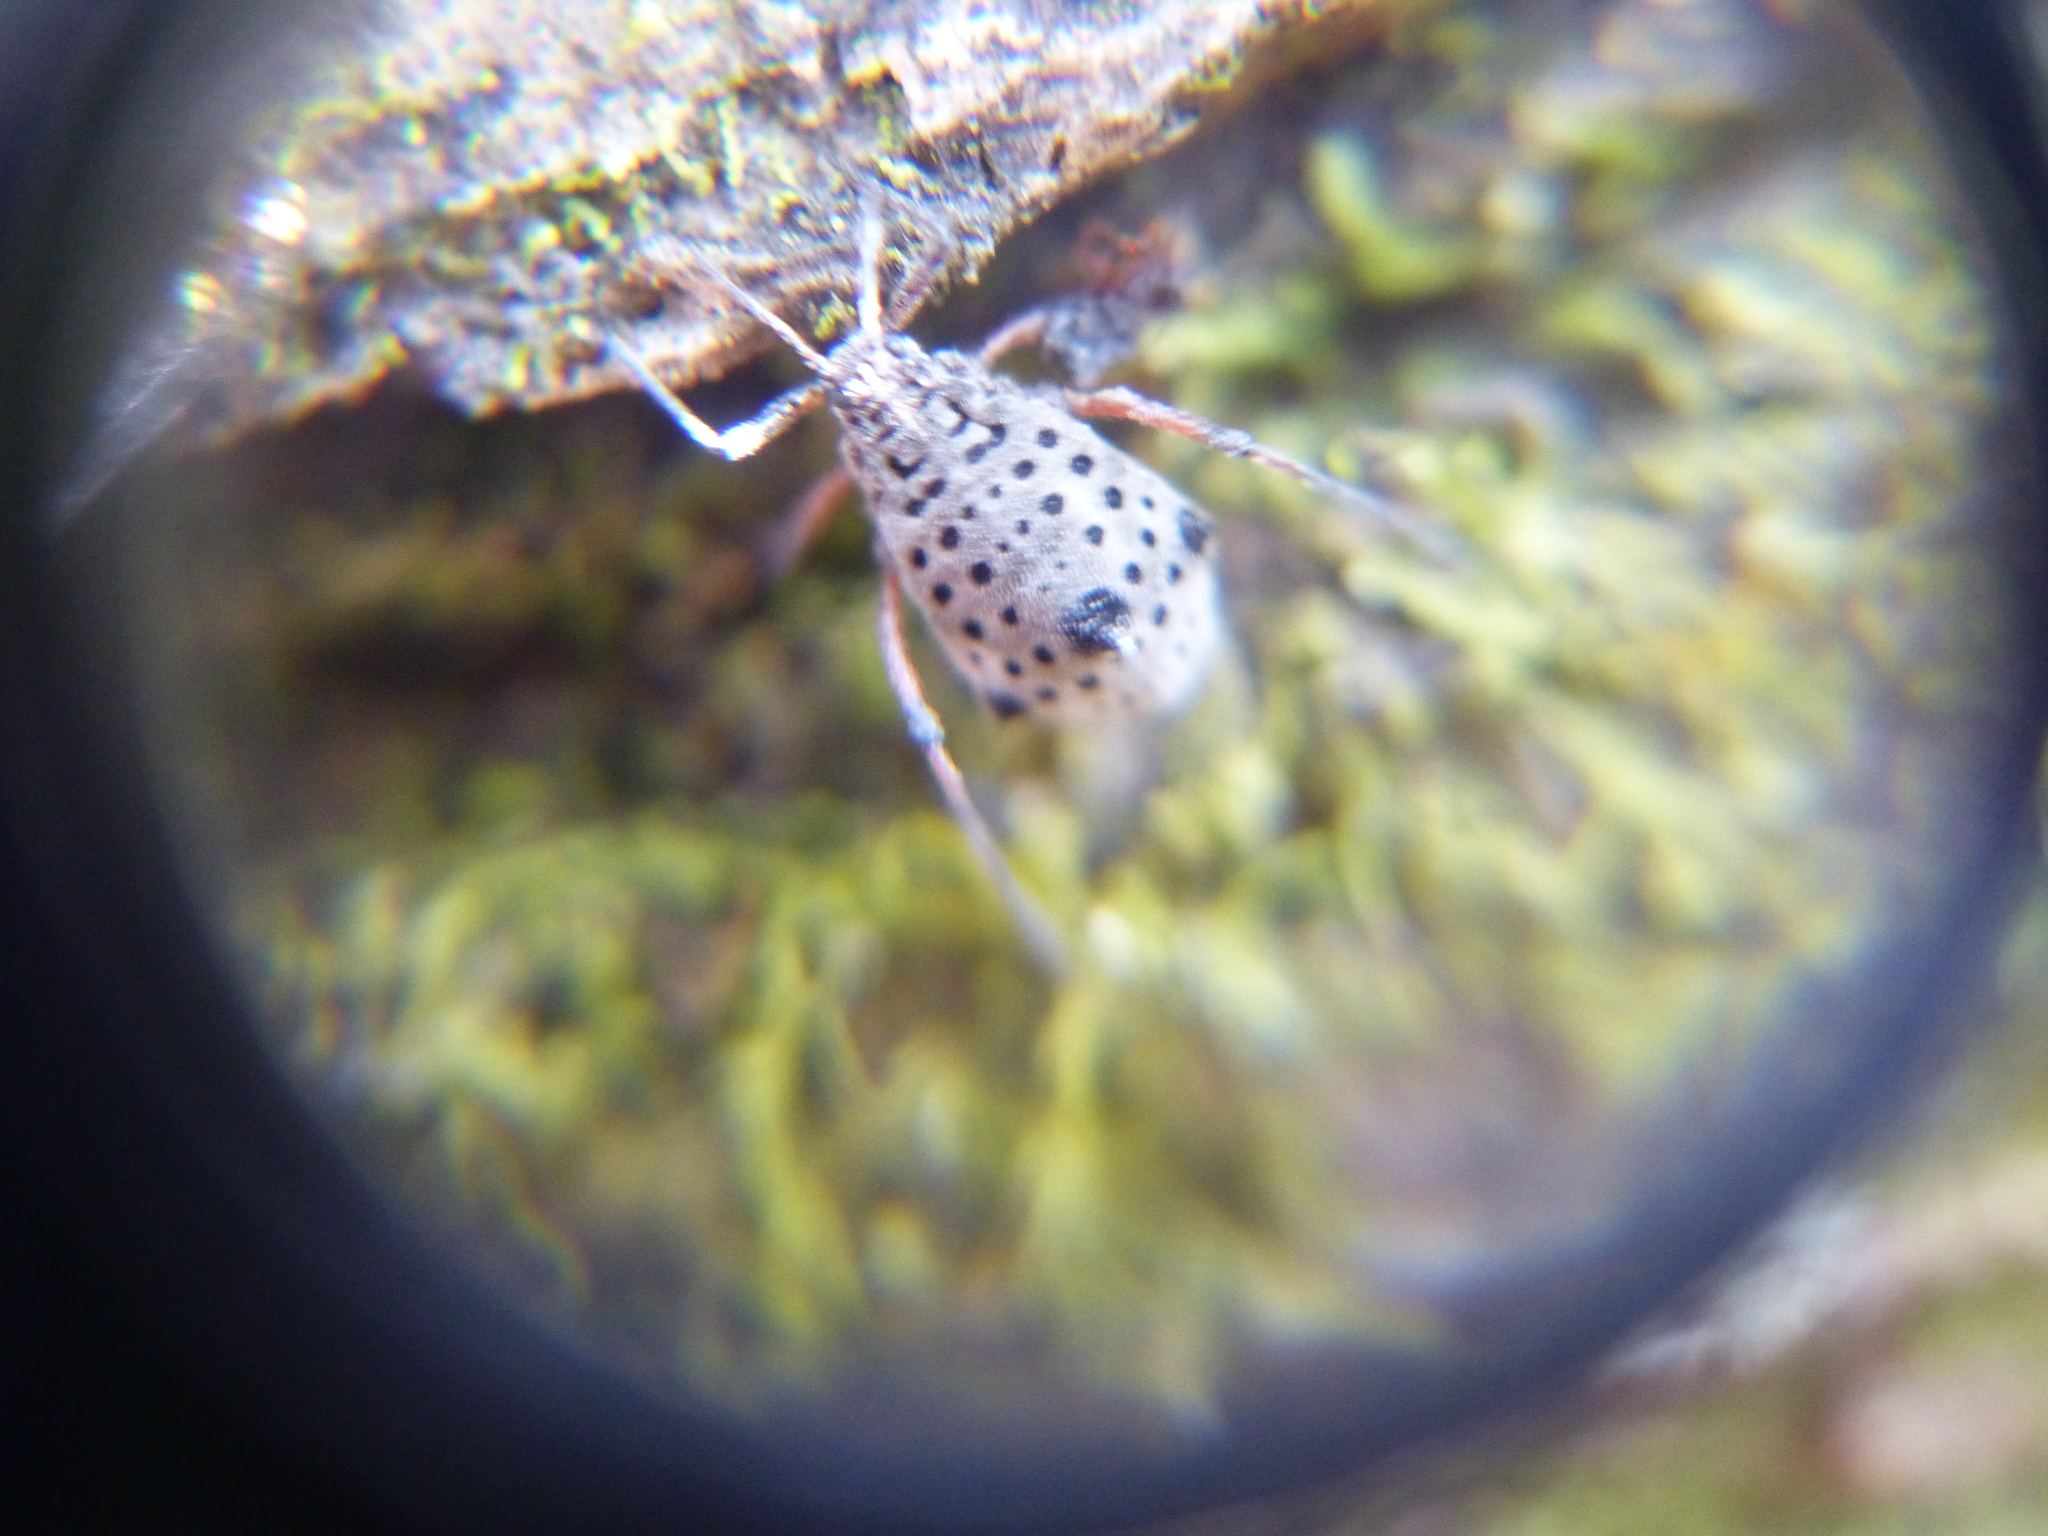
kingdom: Animalia
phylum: Arthropoda
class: Insecta
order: Hemiptera
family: Aphididae
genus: Tuberolachnus
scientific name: Tuberolachnus salignus
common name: Giant willow aphid
